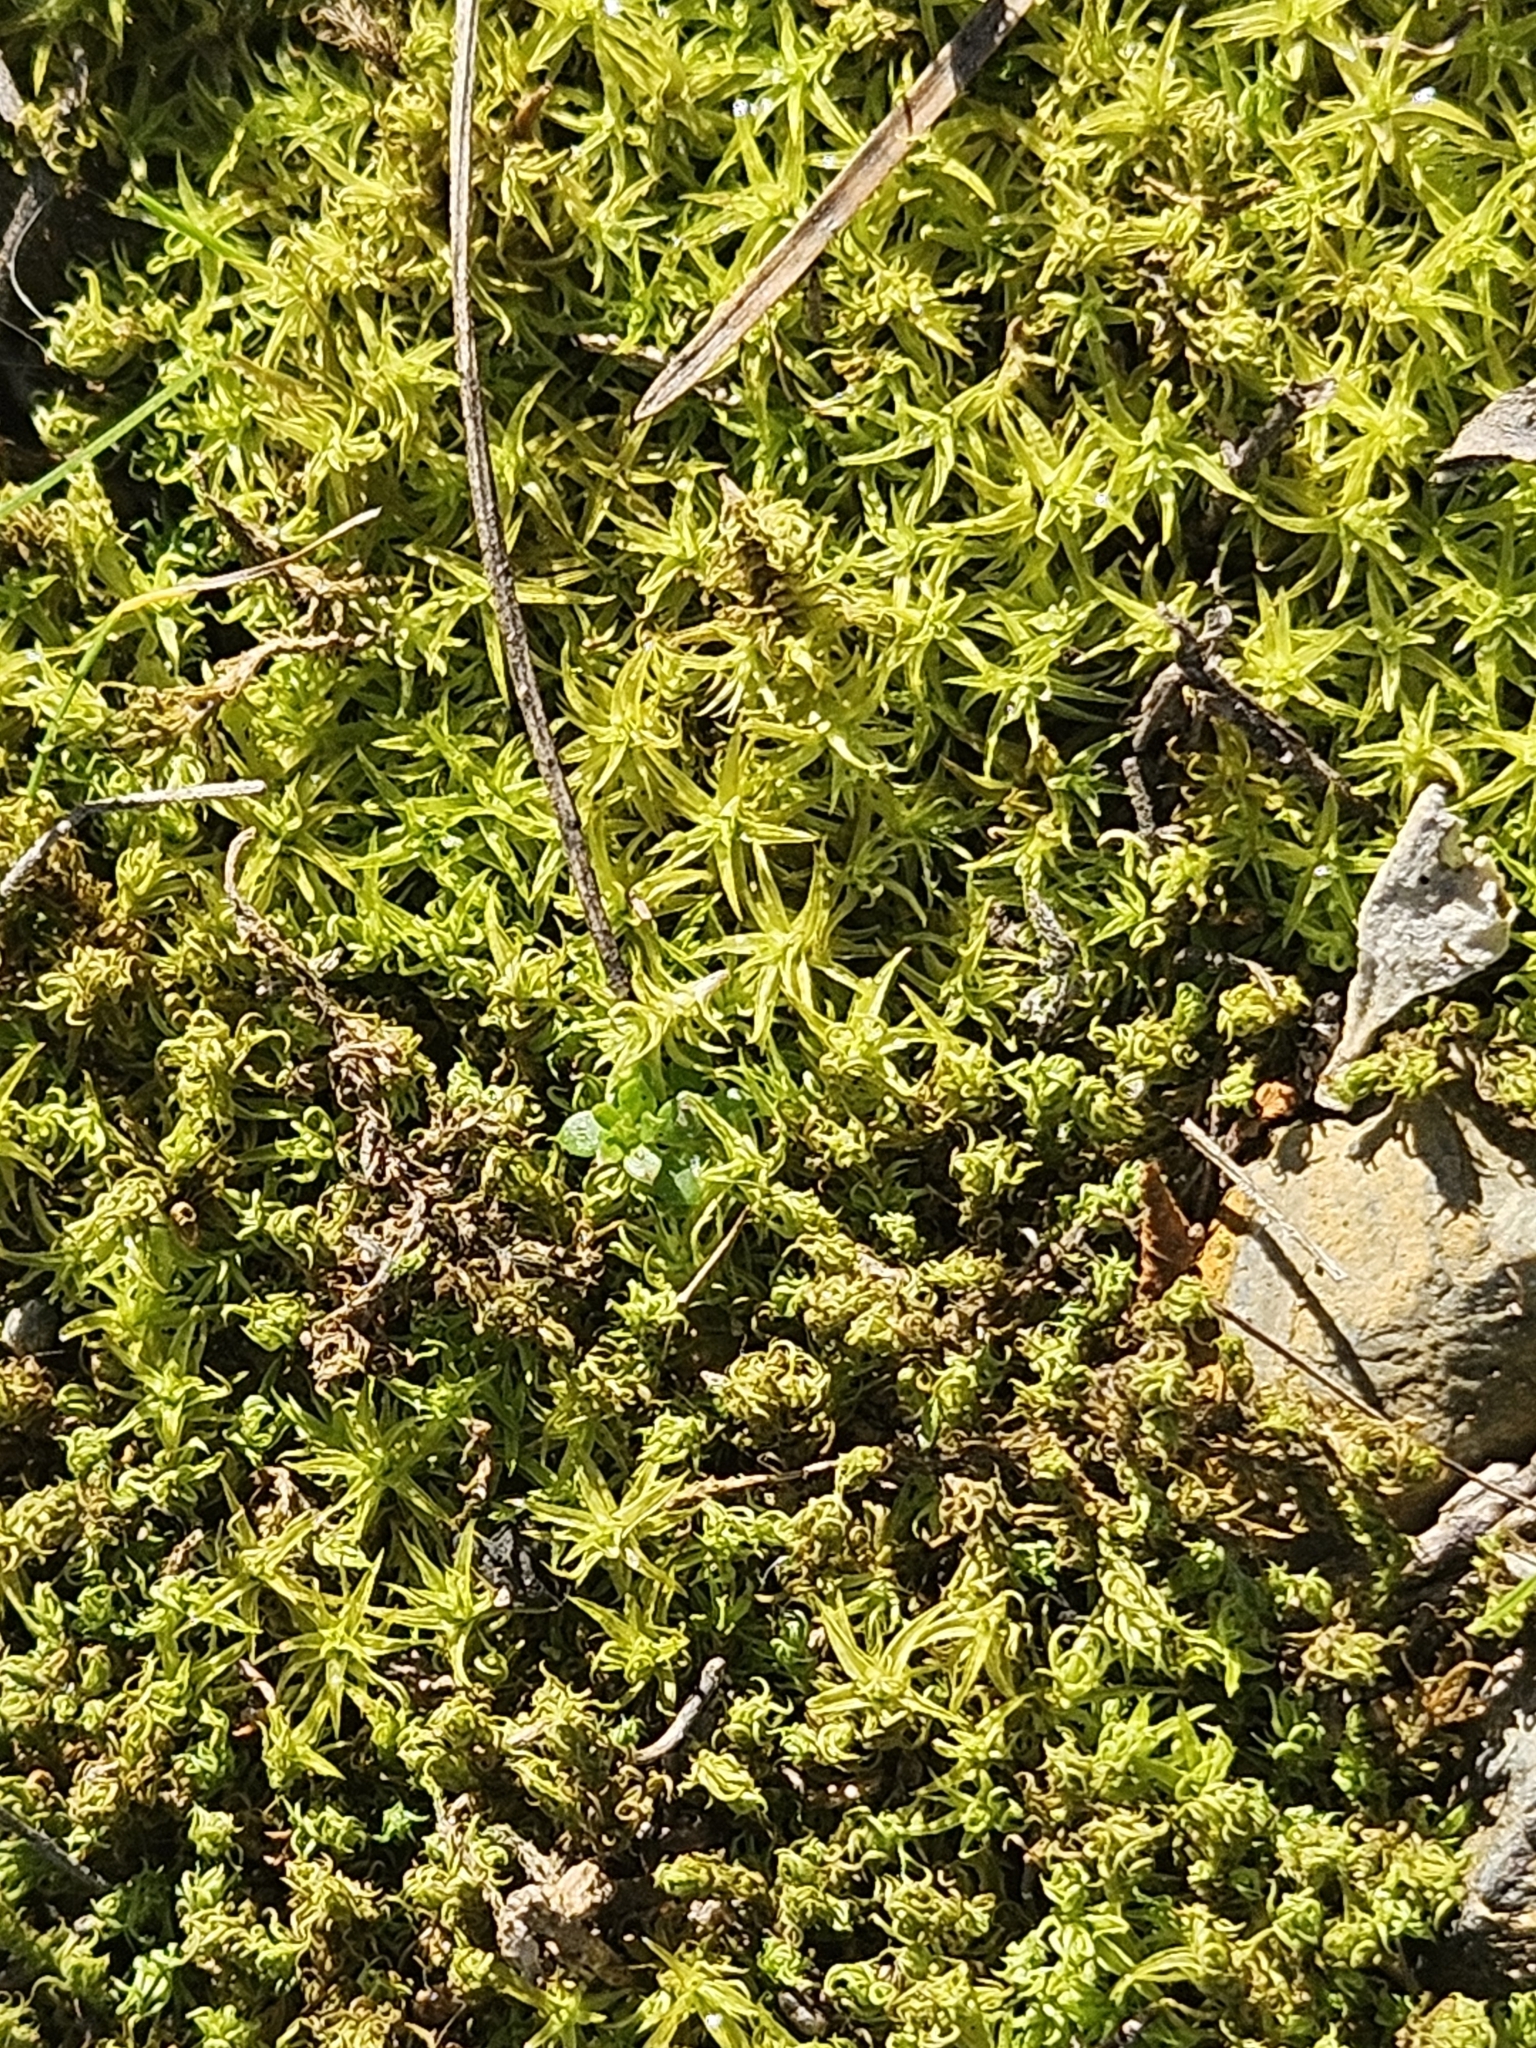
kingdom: Plantae
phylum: Bryophyta
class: Bryopsida
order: Pottiales
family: Pottiaceae
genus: Pleurochaete
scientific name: Pleurochaete squarrosa
